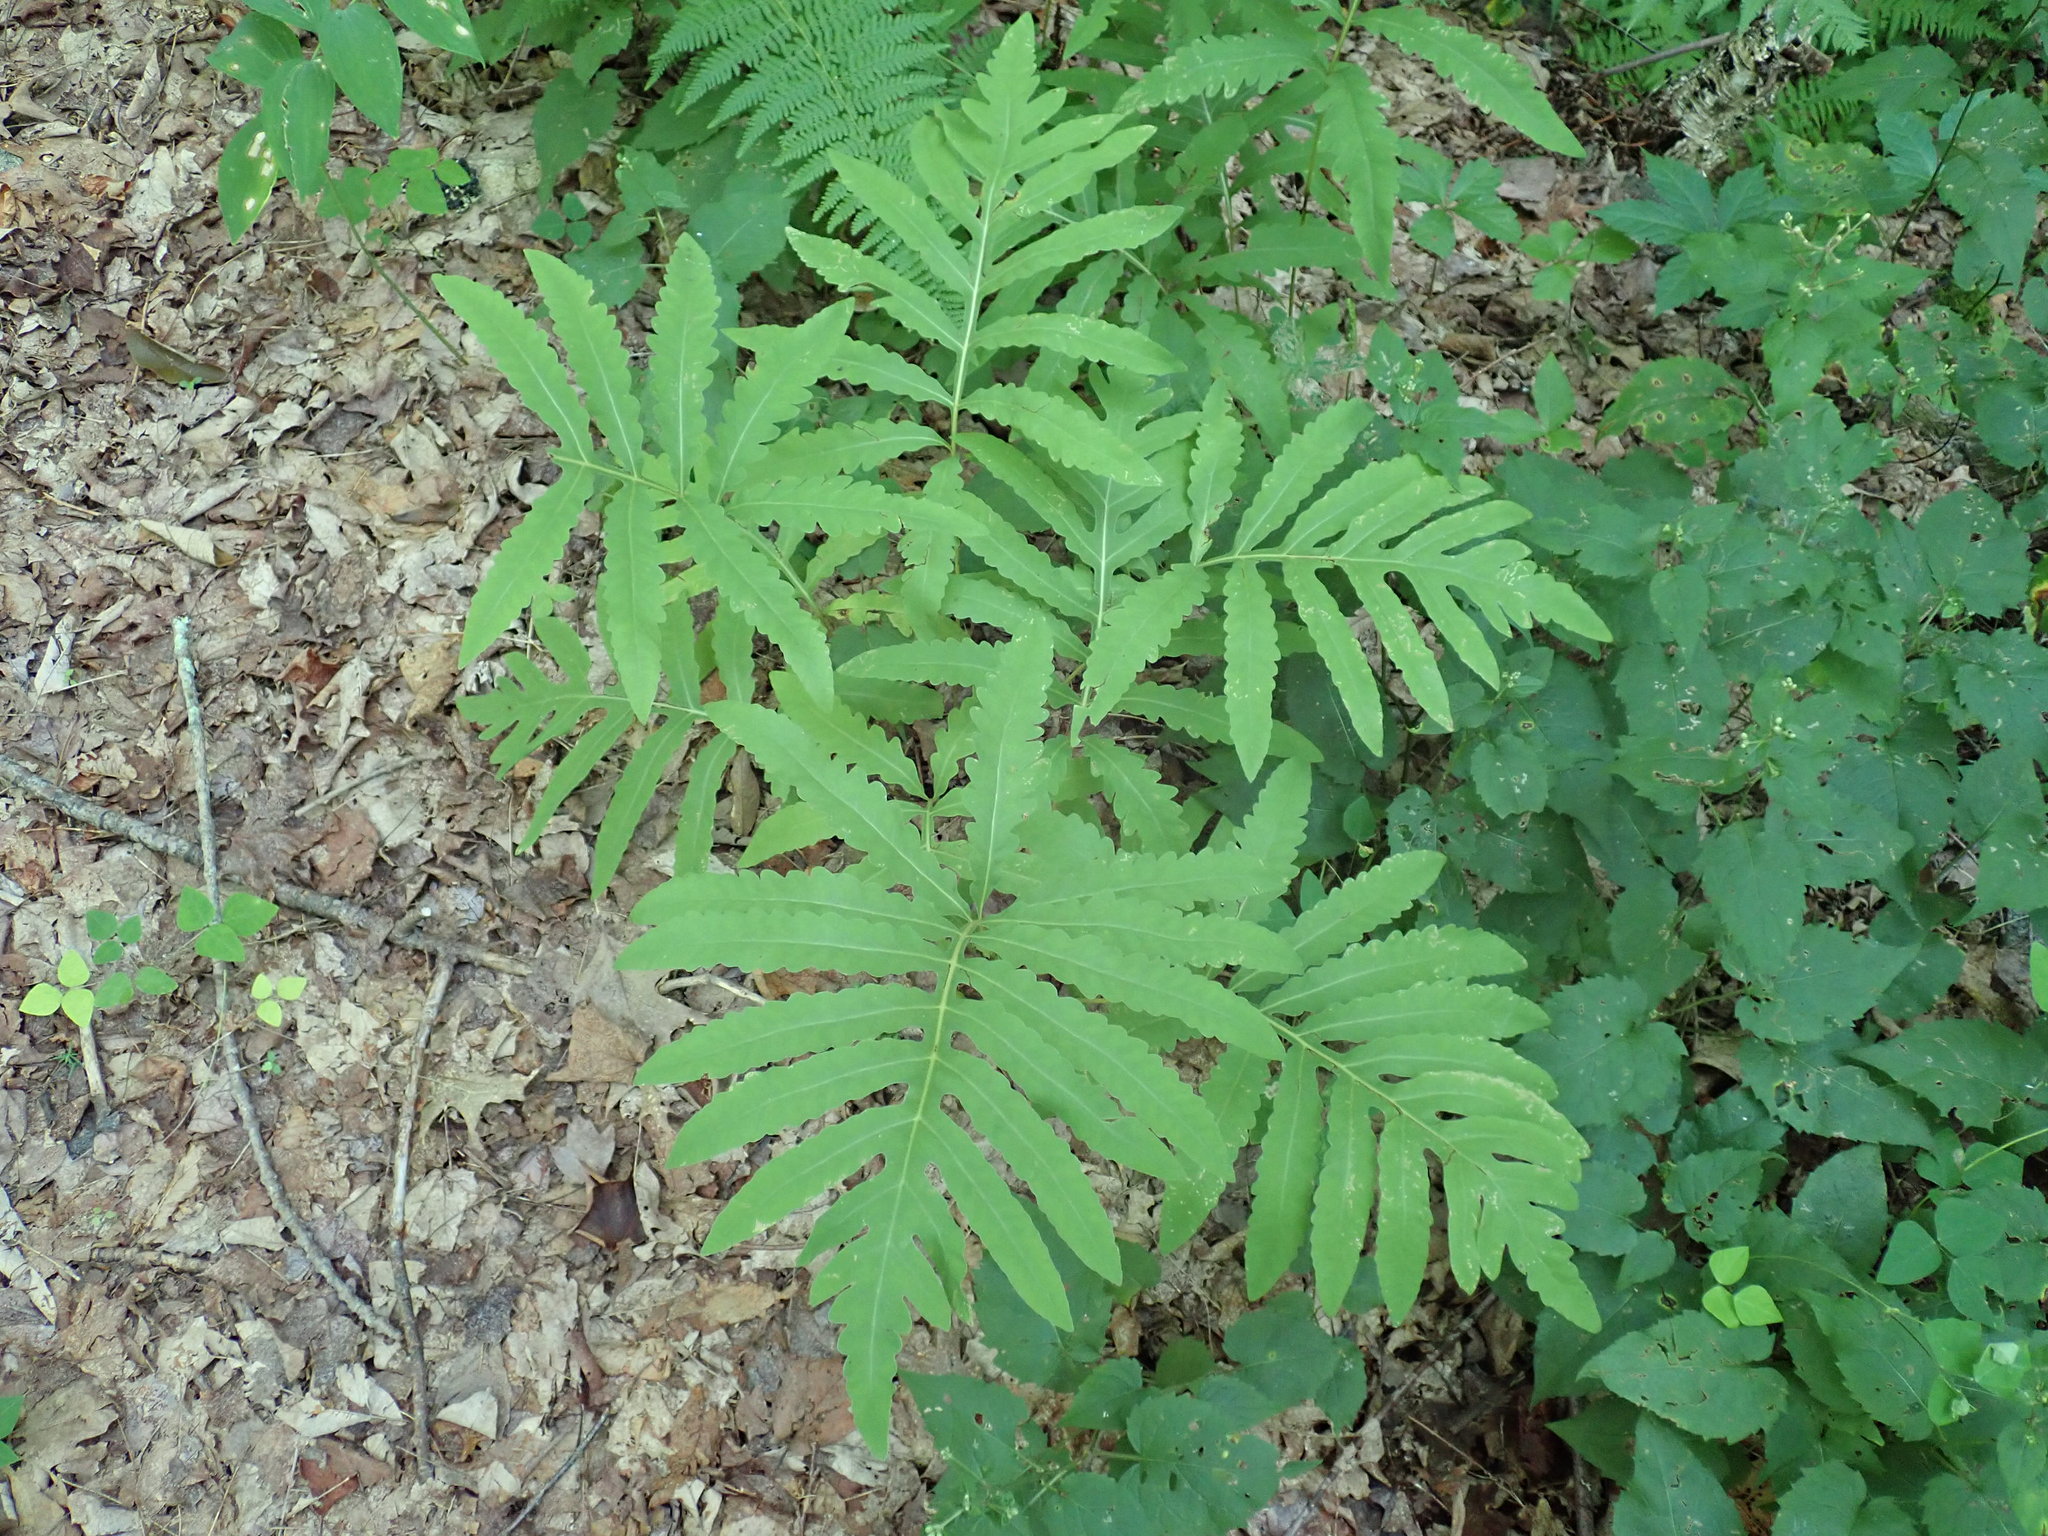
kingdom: Plantae
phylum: Tracheophyta
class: Polypodiopsida
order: Polypodiales
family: Onocleaceae
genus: Onoclea
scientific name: Onoclea sensibilis
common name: Sensitive fern
